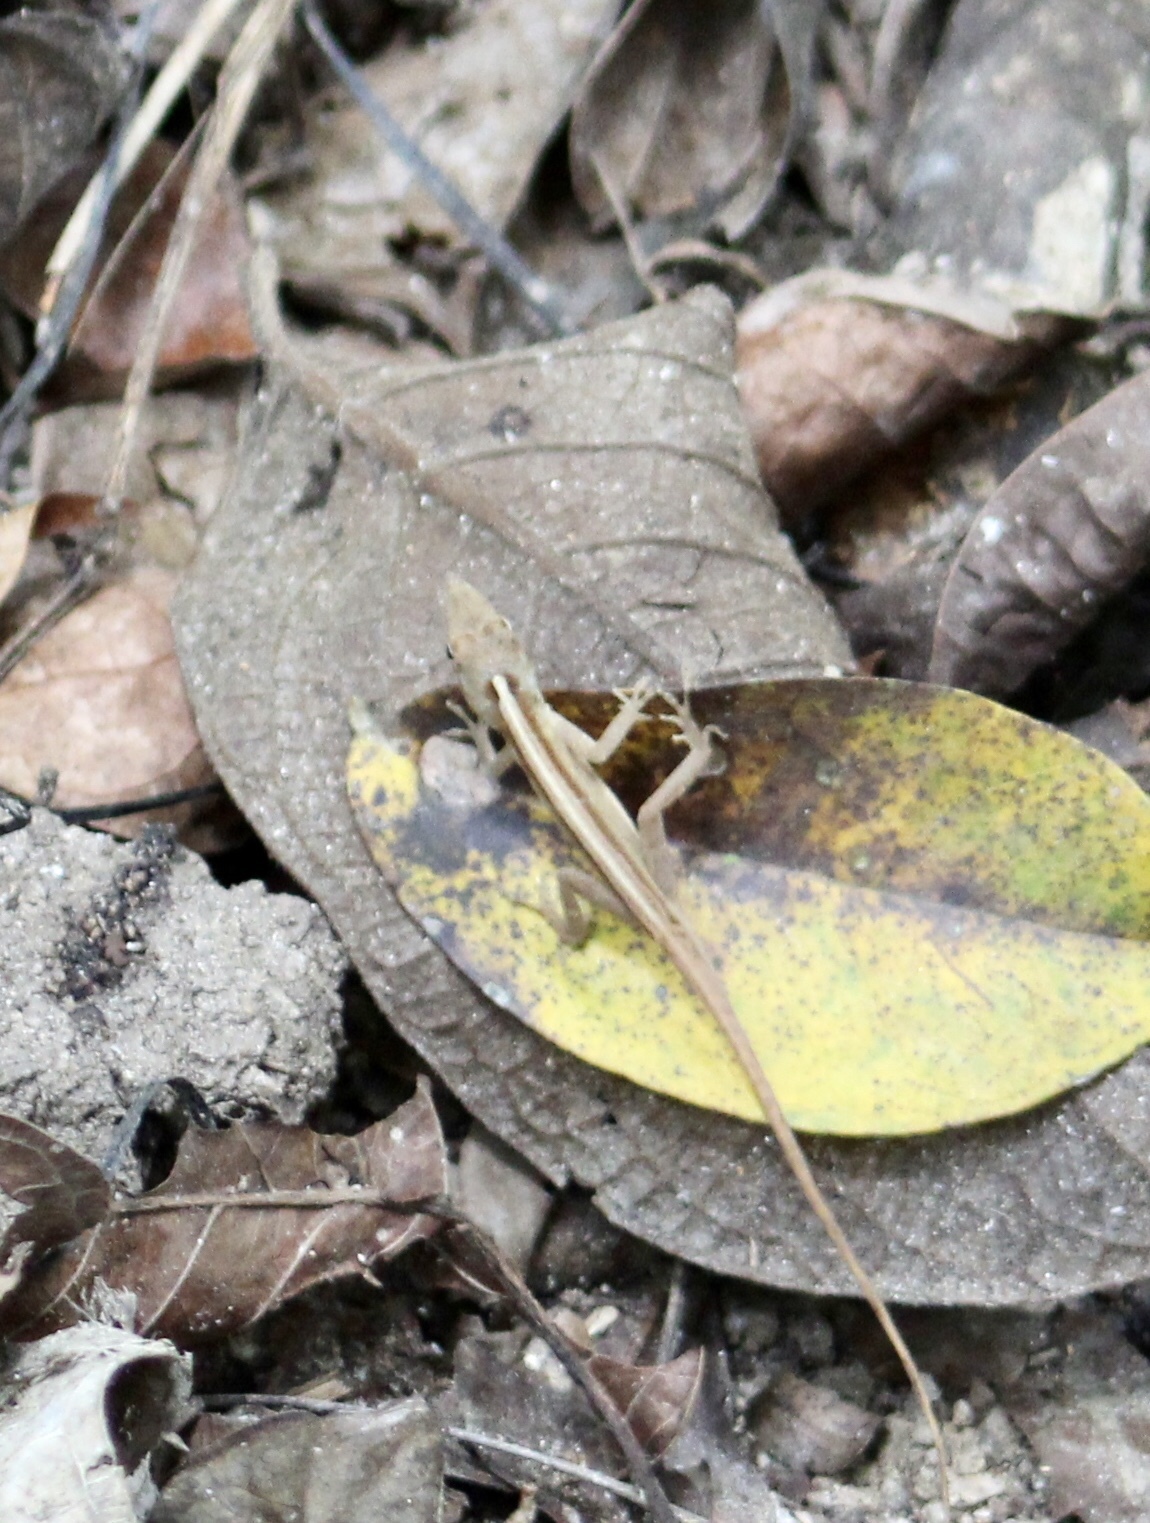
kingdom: Animalia
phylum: Chordata
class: Squamata
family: Dactyloidae
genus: Anolis
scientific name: Anolis nebulosus
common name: Clouded anole
